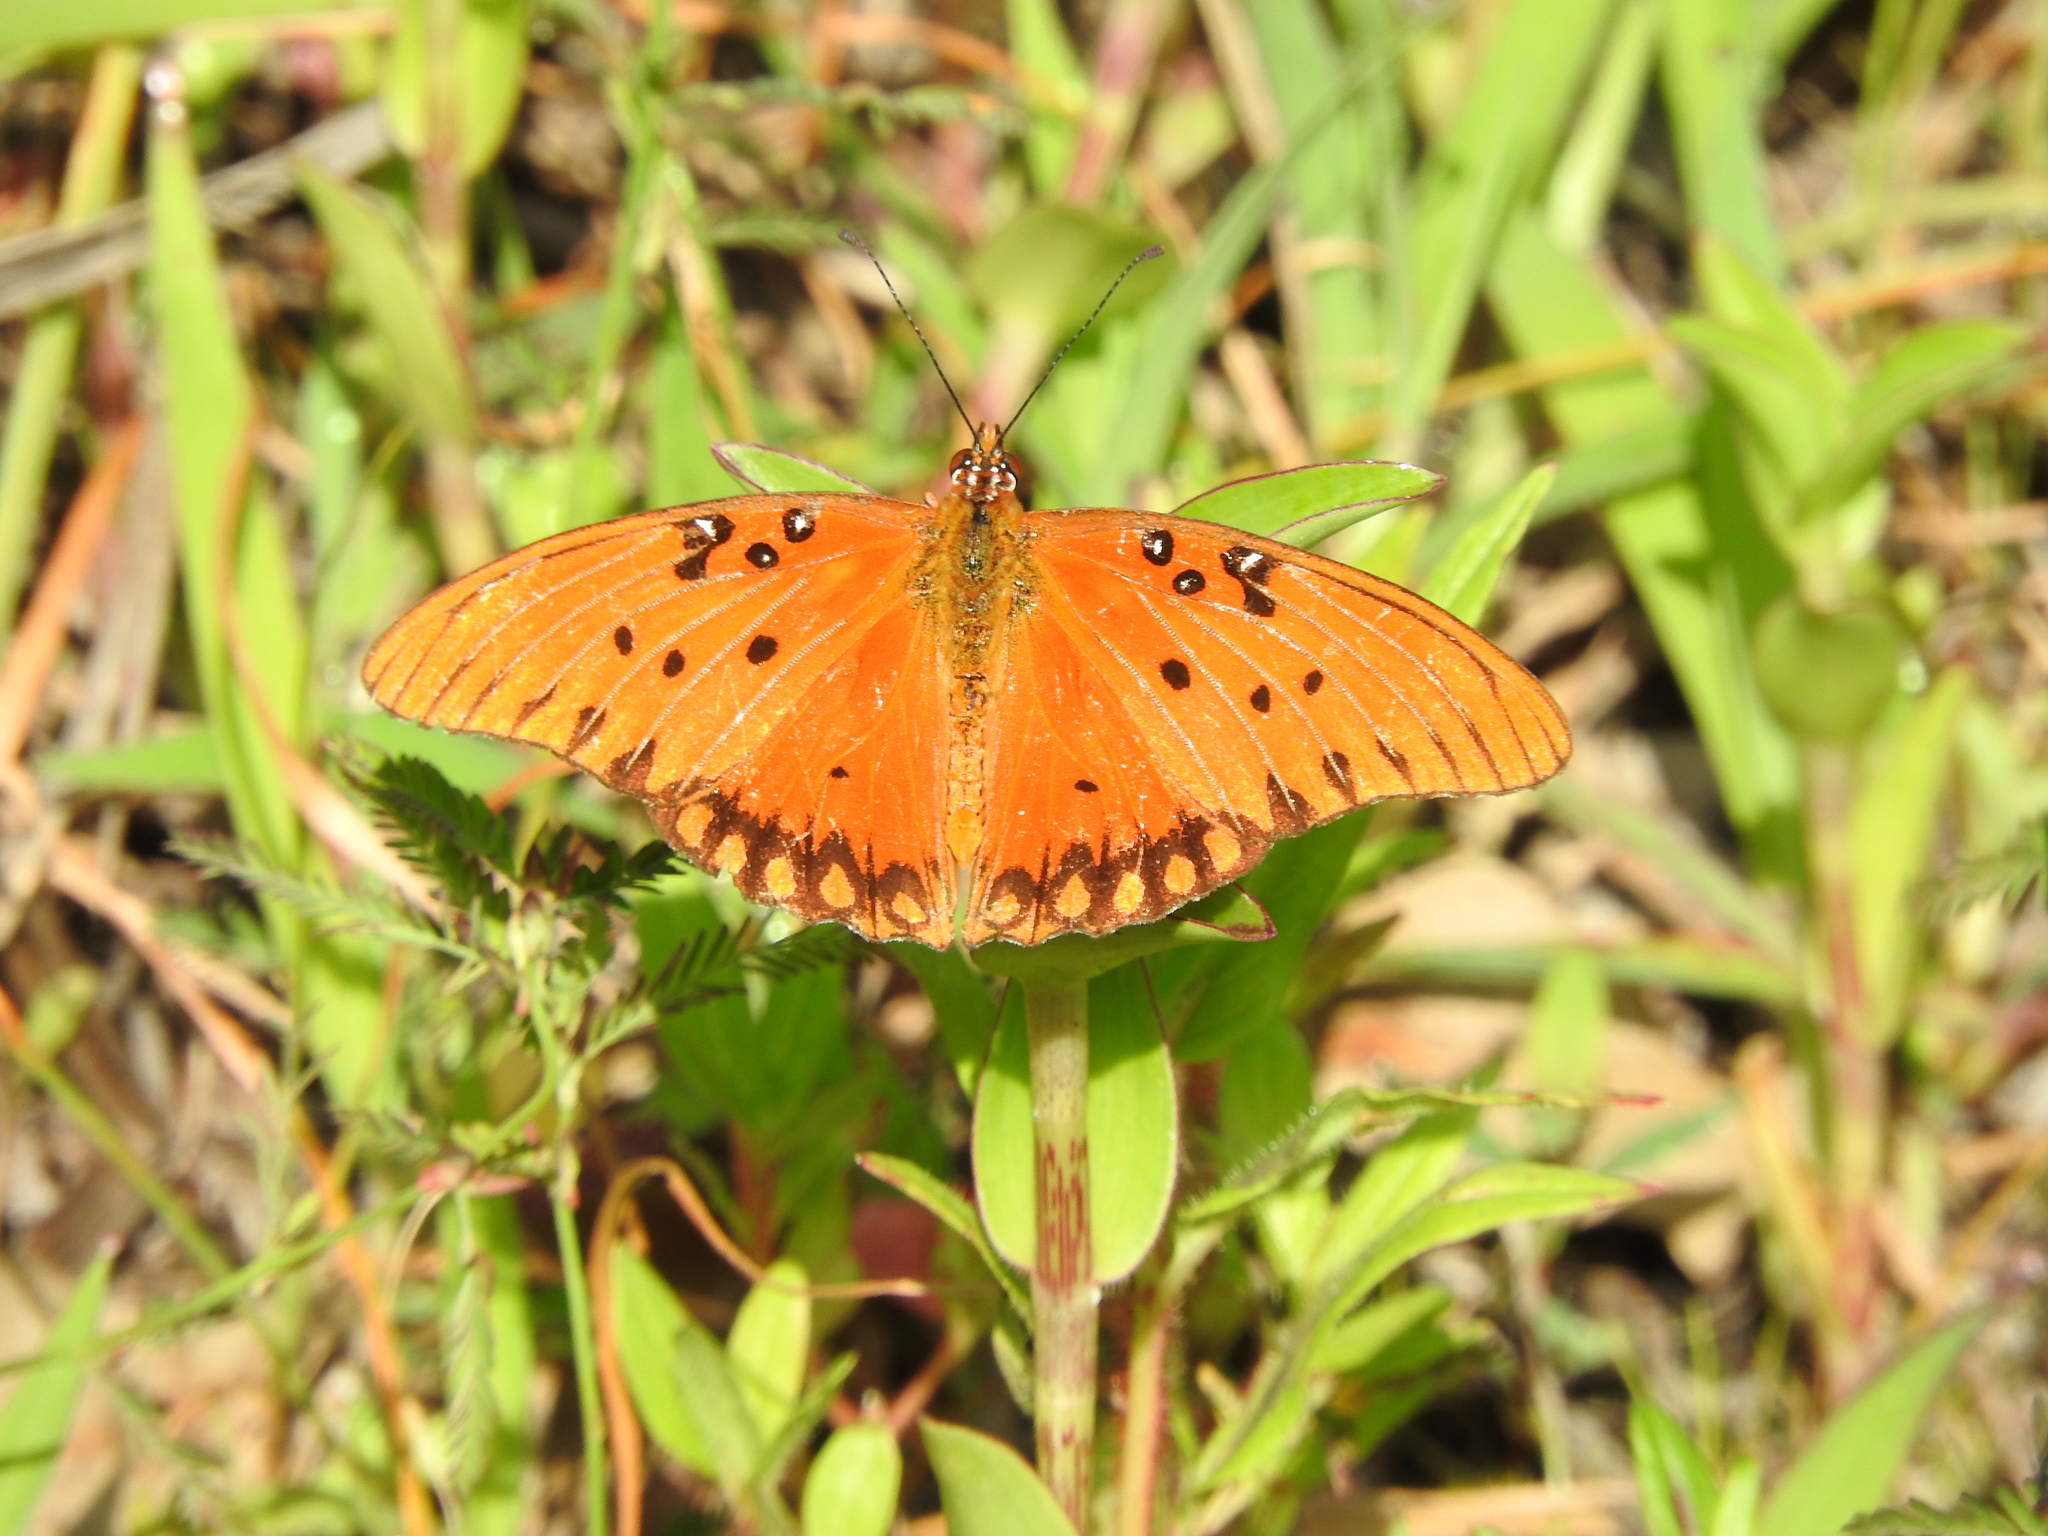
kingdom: Animalia
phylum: Arthropoda
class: Insecta
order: Lepidoptera
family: Nymphalidae
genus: Dione
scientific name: Dione vanillae
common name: Gulf fritillary
